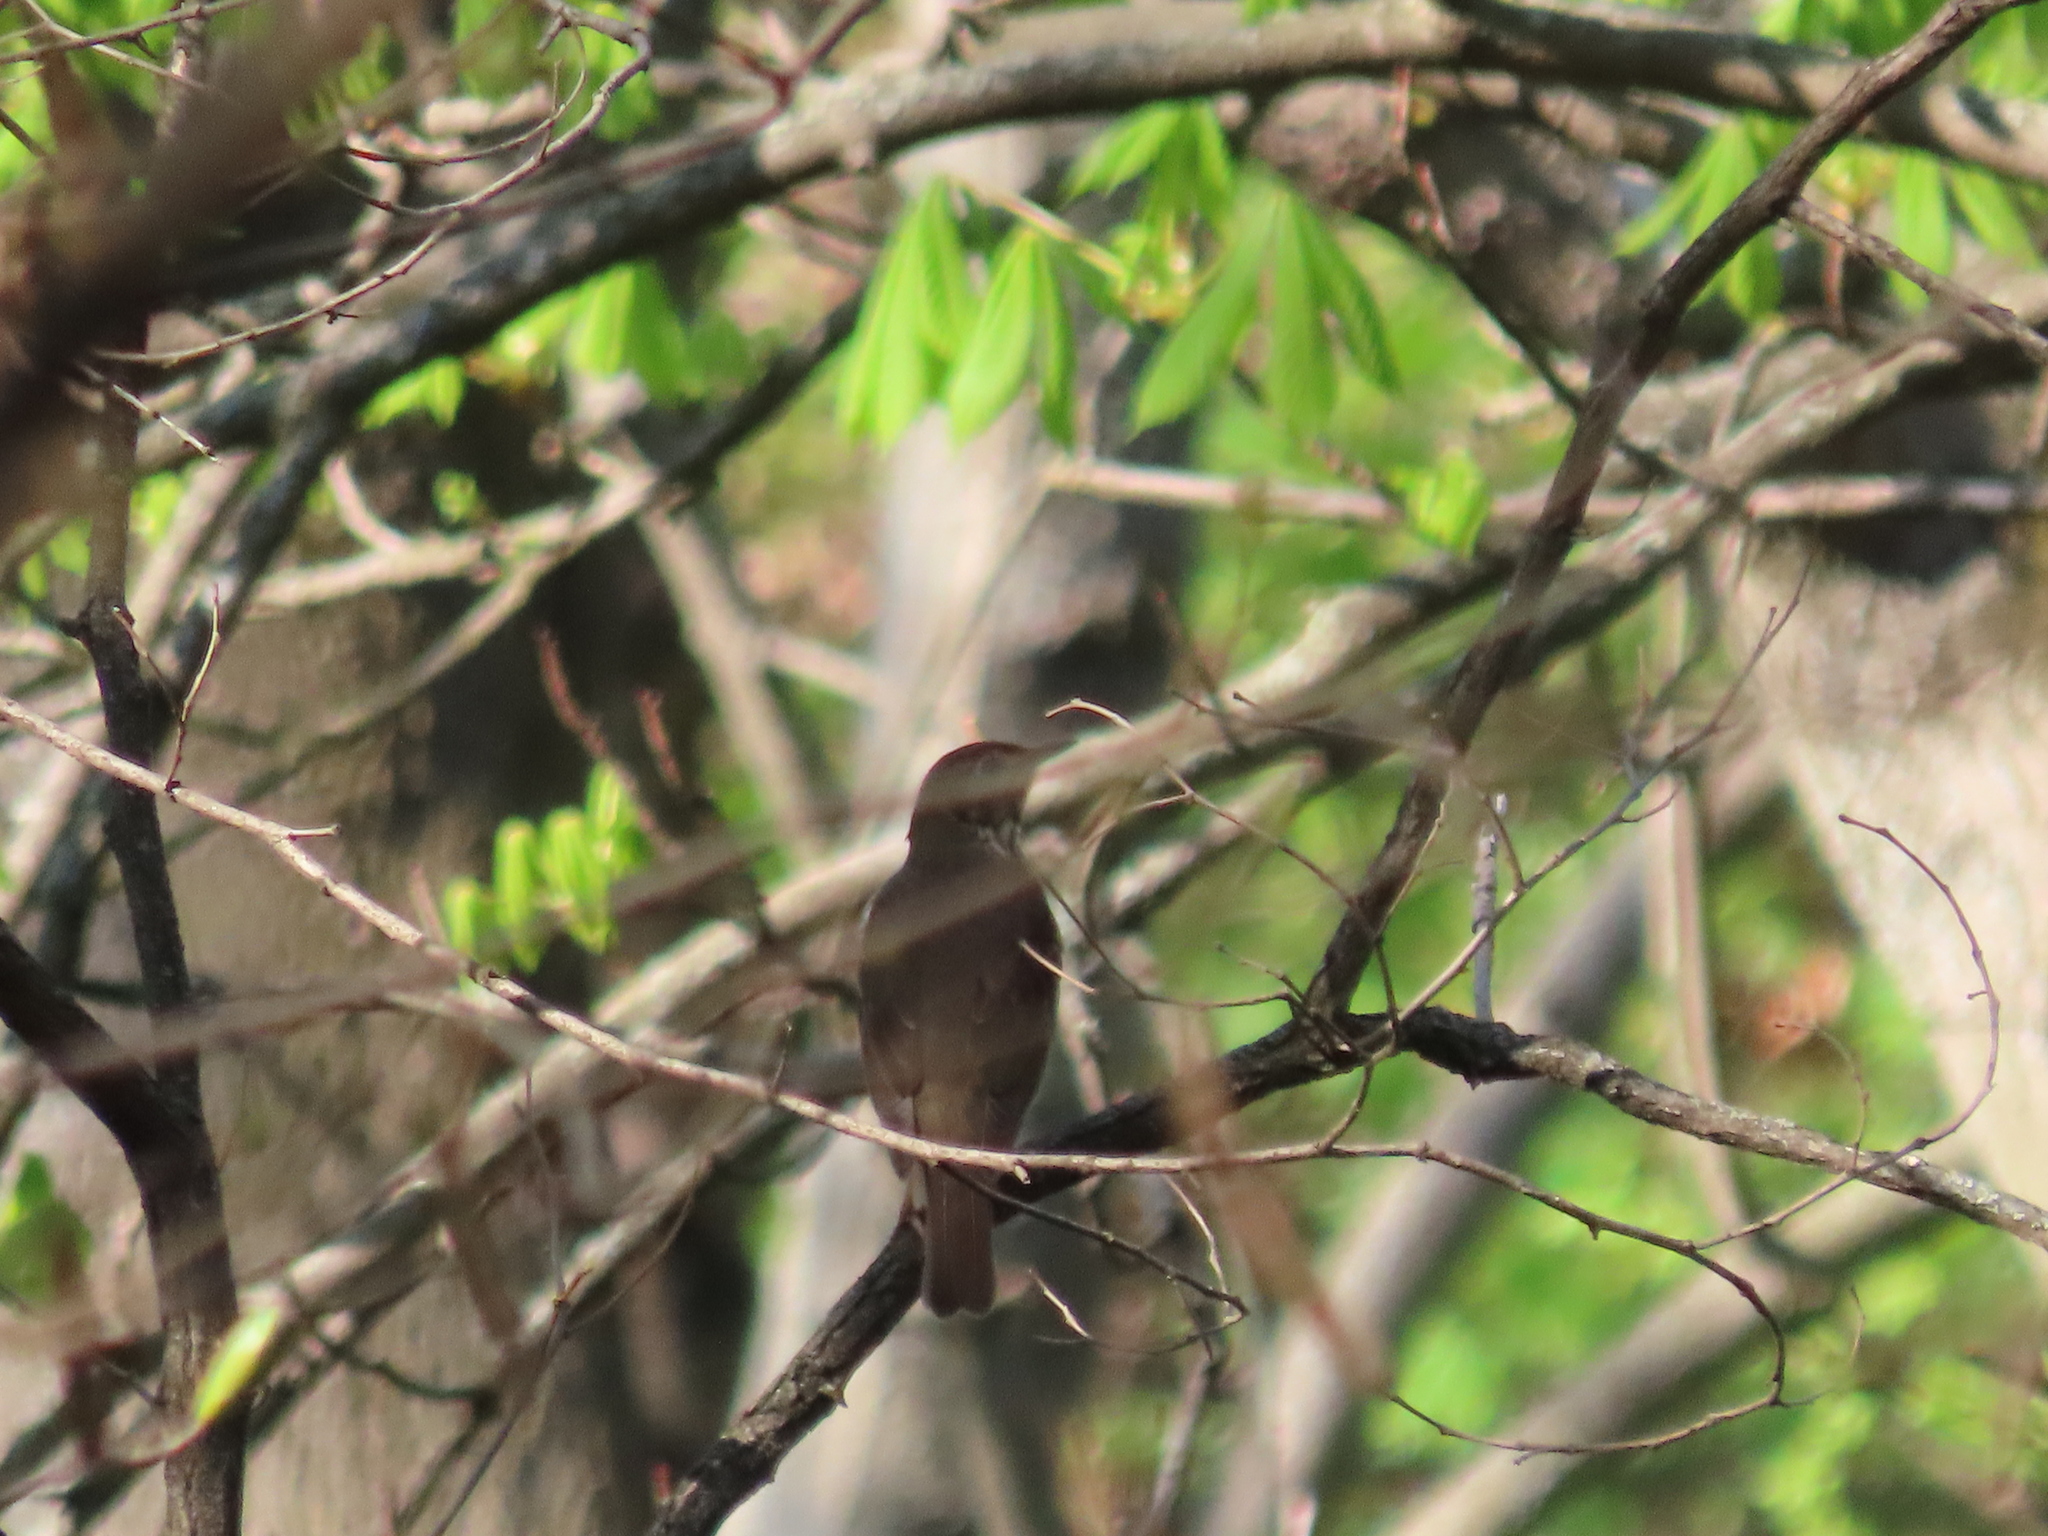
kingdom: Animalia
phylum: Chordata
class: Aves
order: Passeriformes
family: Turdidae
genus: Turdus
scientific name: Turdus philomelos
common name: Song thrush
